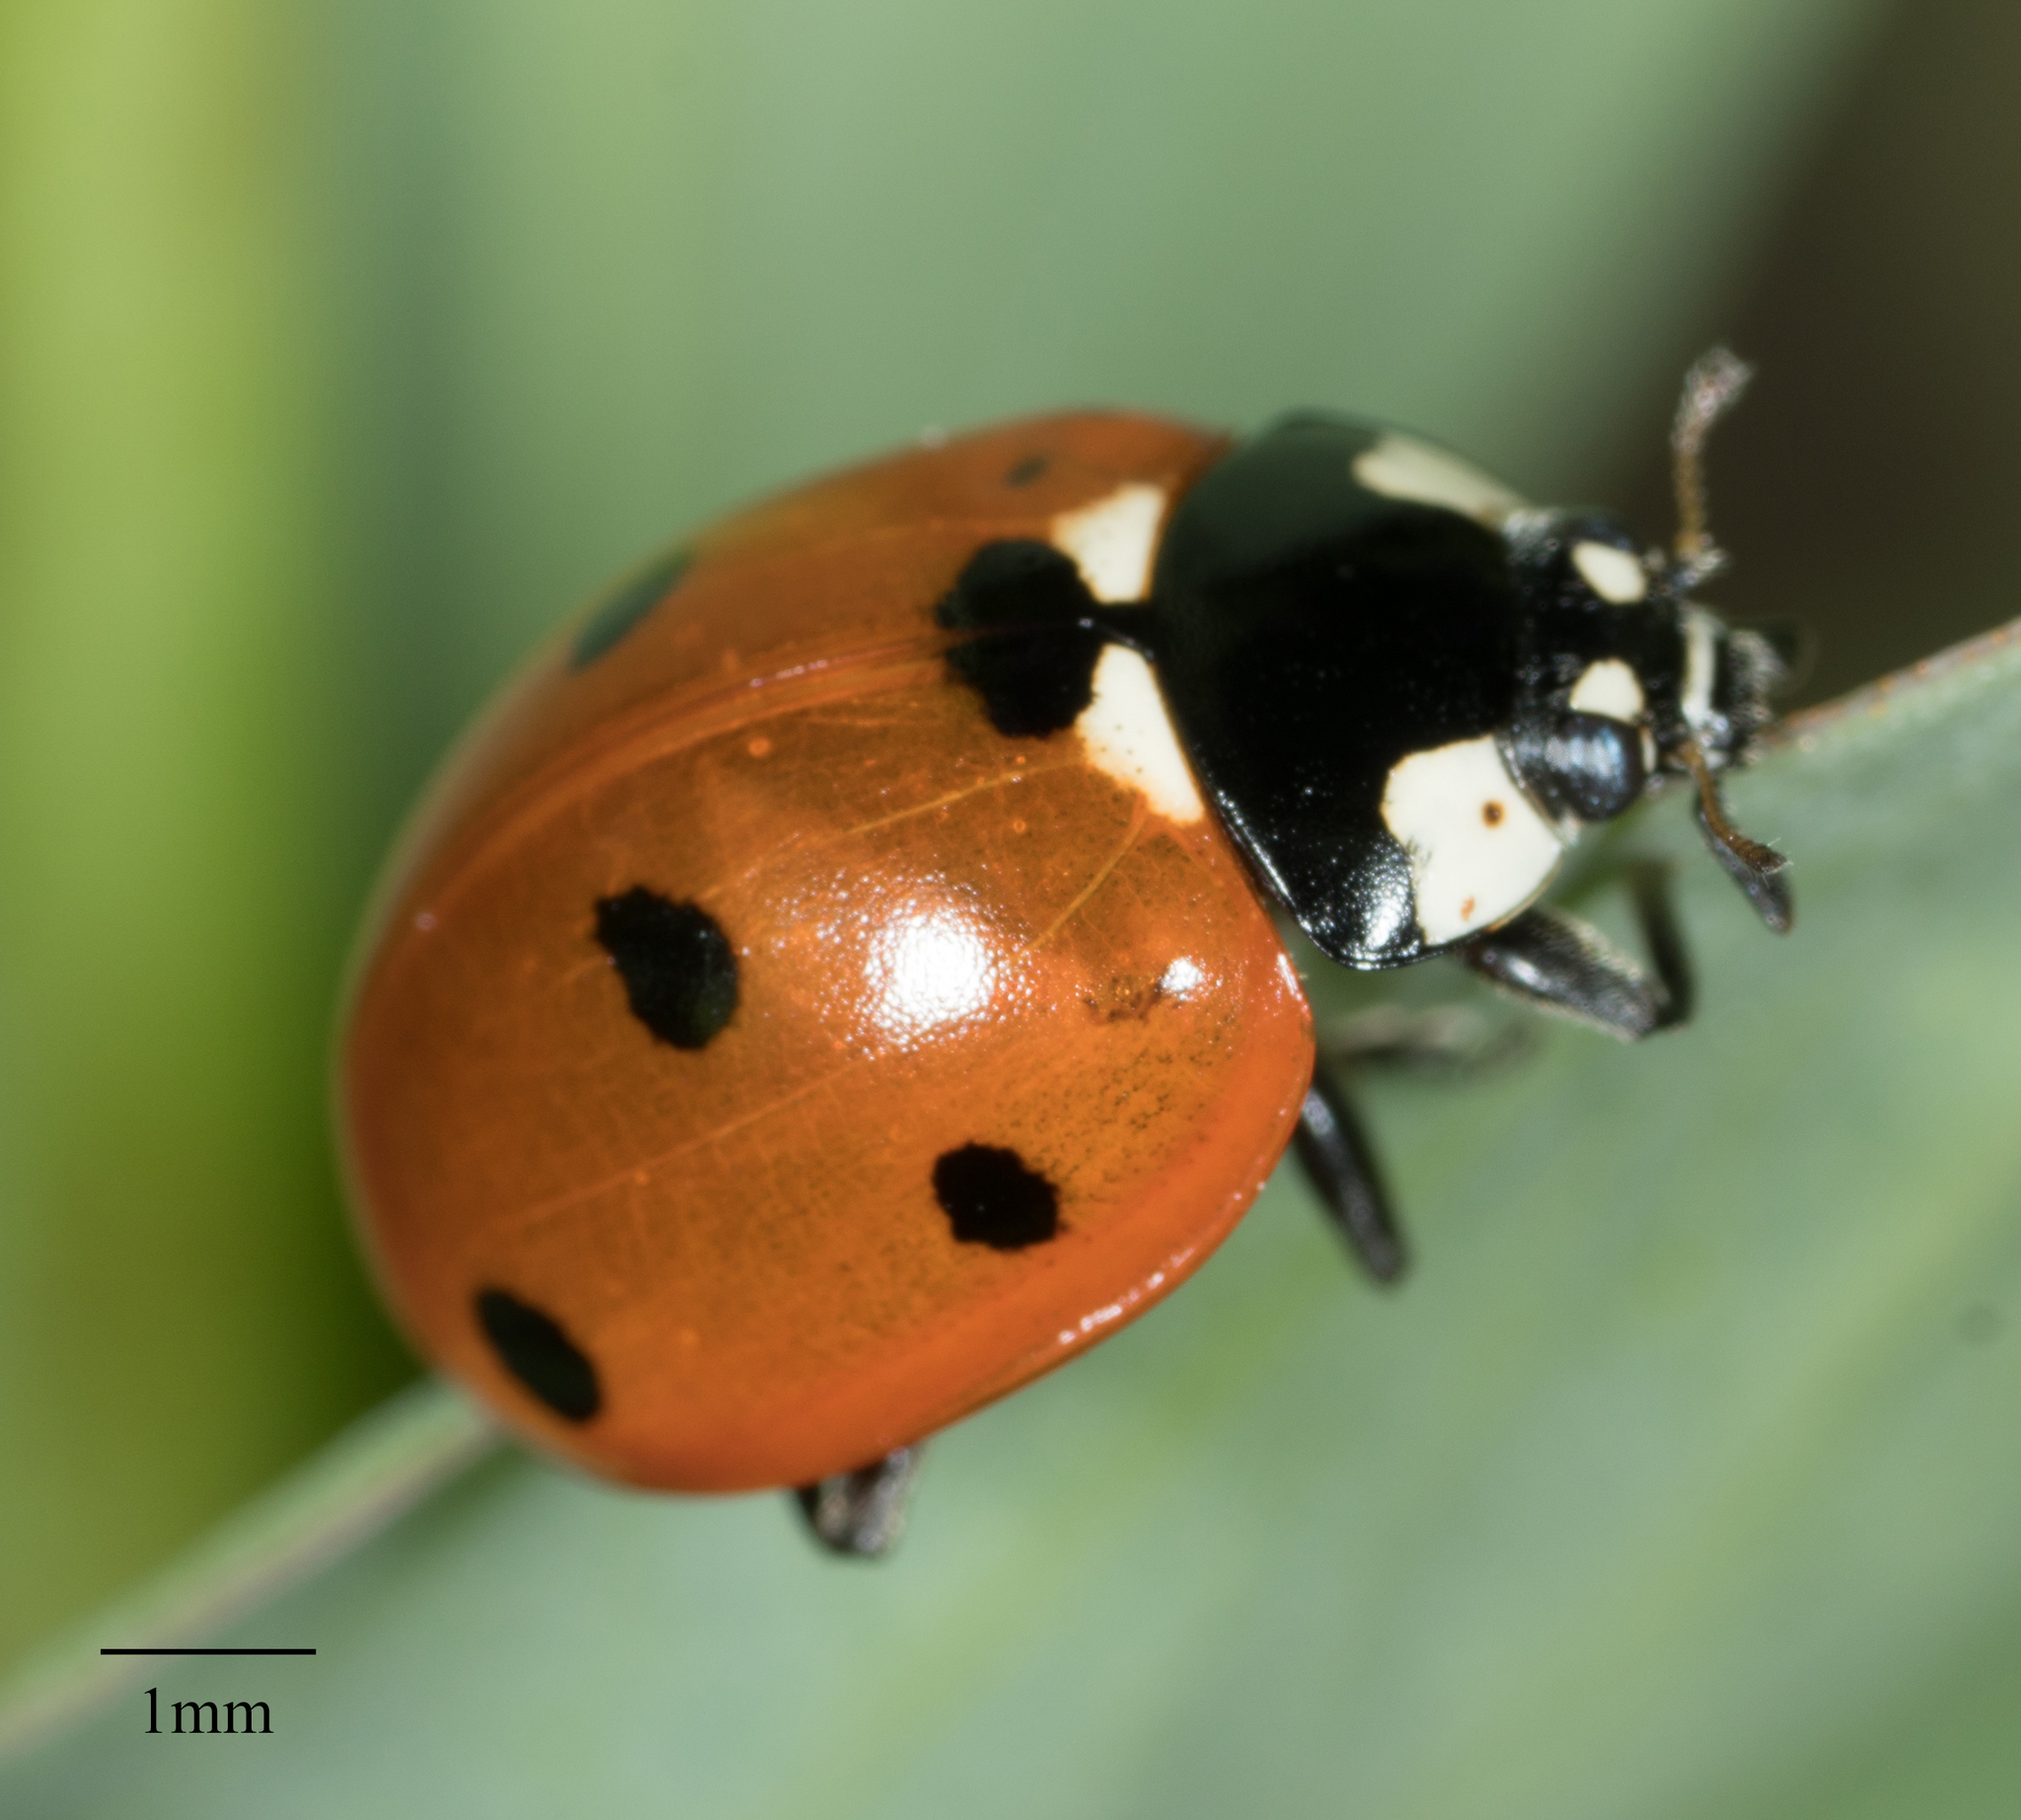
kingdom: Animalia
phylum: Arthropoda
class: Insecta
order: Coleoptera
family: Coccinellidae
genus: Coccinella
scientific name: Coccinella septempunctata
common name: Sevenspotted lady beetle
